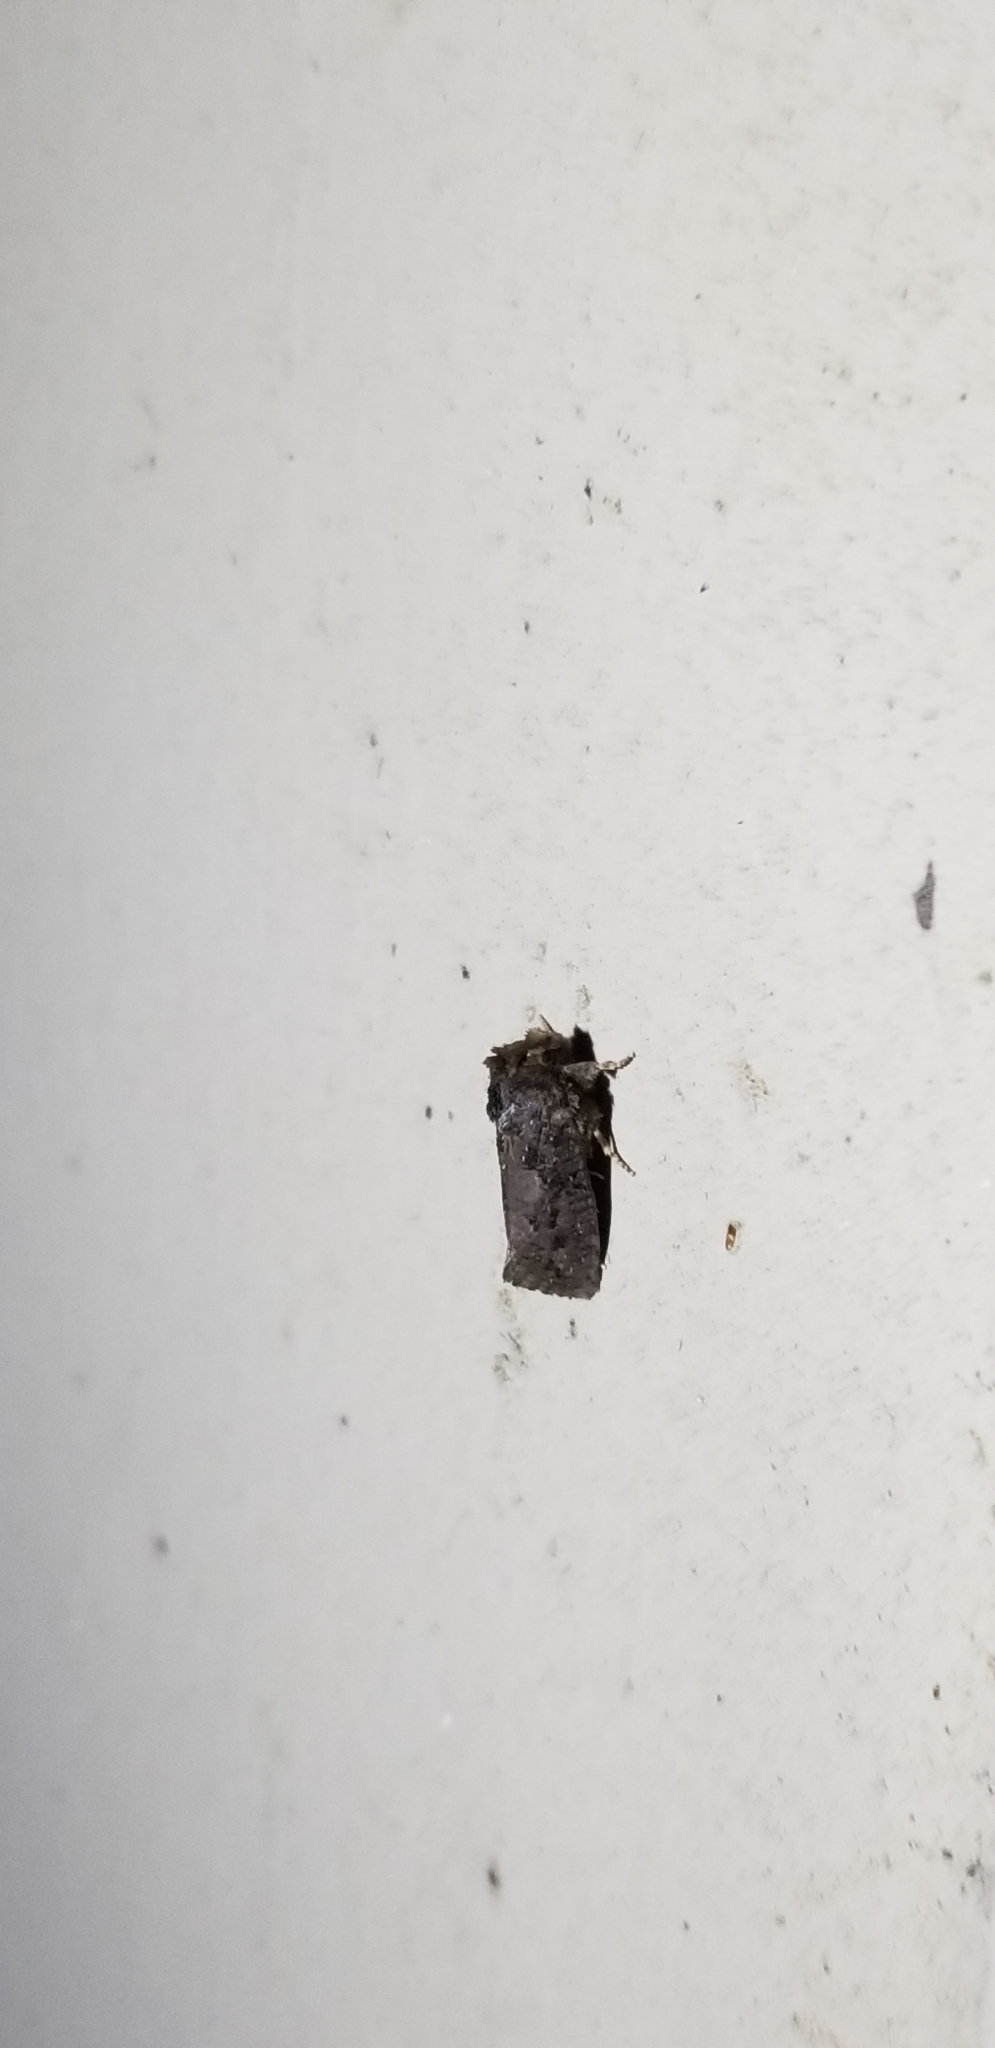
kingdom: Animalia
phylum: Arthropoda
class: Insecta
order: Lepidoptera
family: Tineidae
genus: Acrolophus
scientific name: Acrolophus arcanella
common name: Arcane grass tubeworm moth
